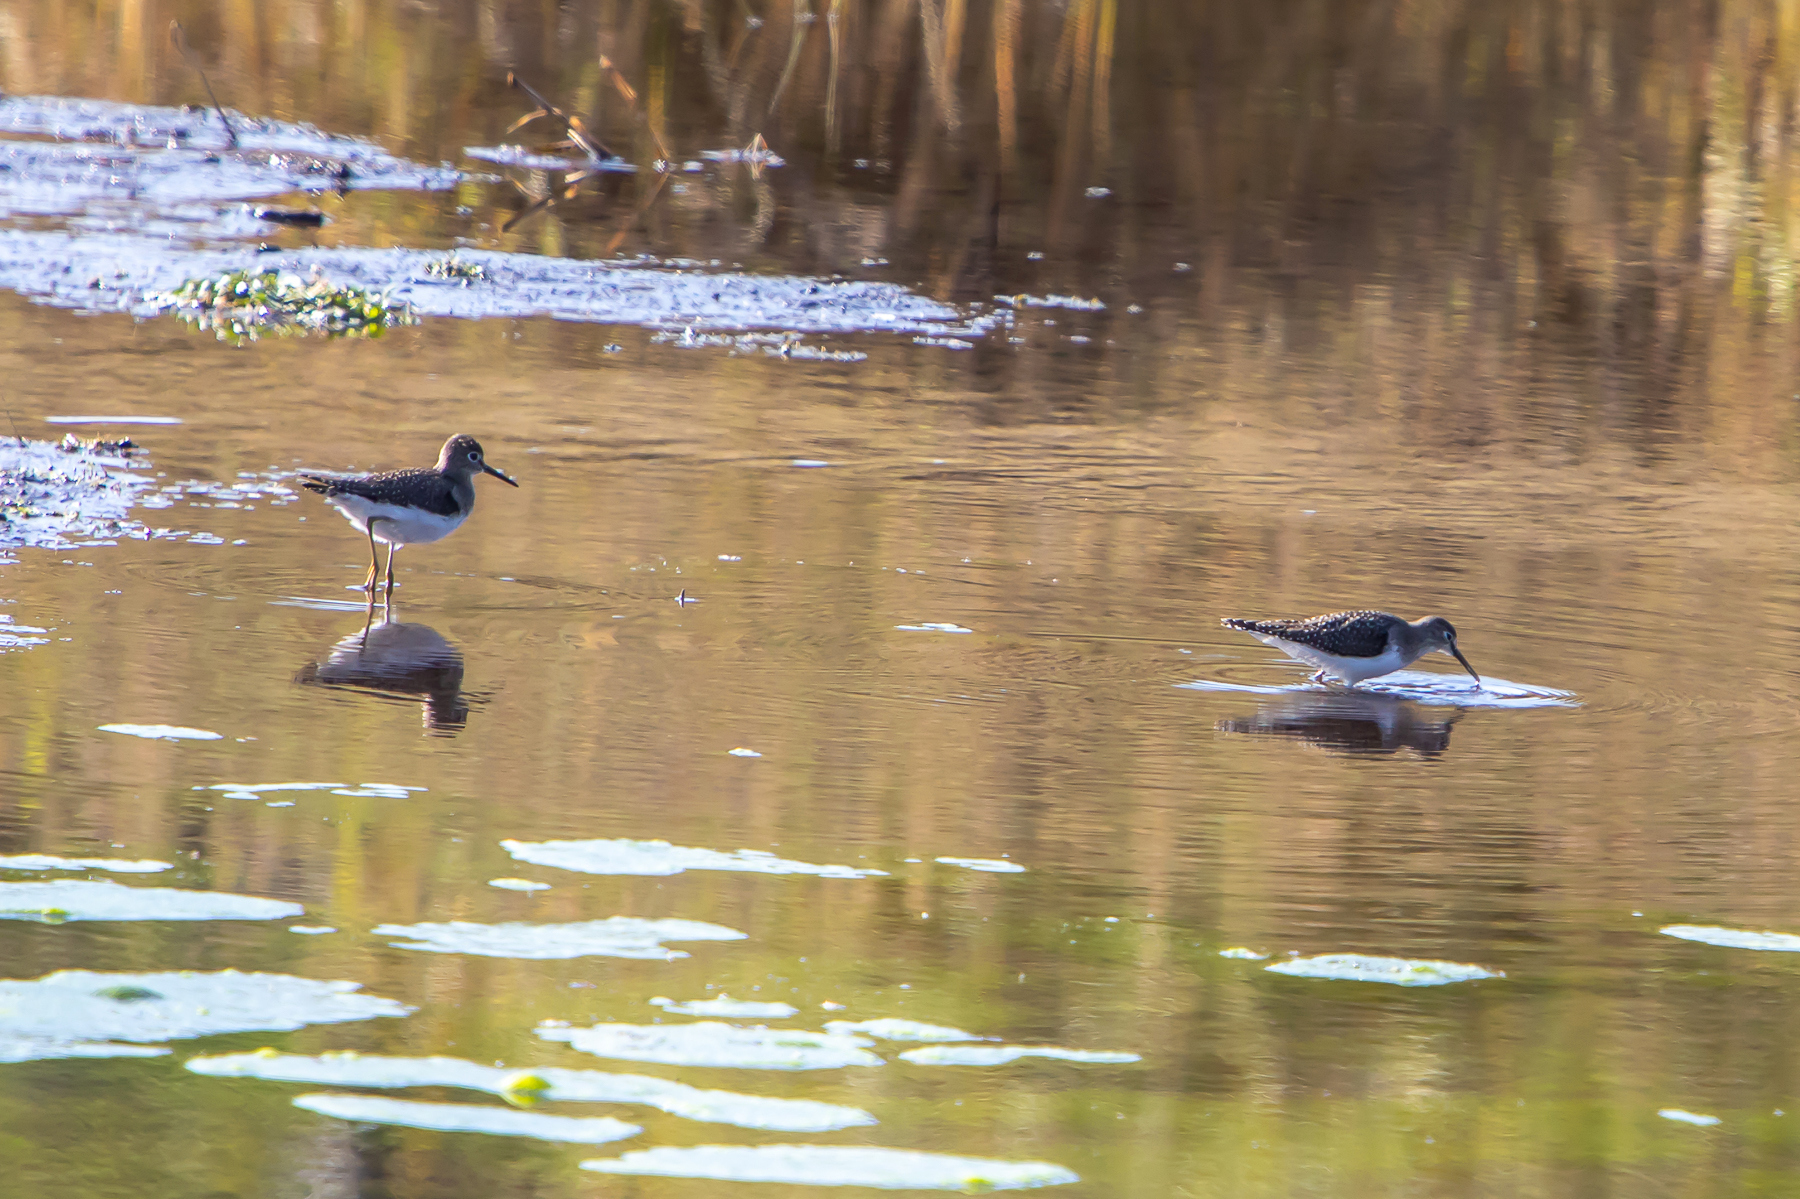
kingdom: Animalia
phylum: Chordata
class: Aves
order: Charadriiformes
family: Scolopacidae
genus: Tringa
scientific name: Tringa solitaria
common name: Solitary sandpiper
